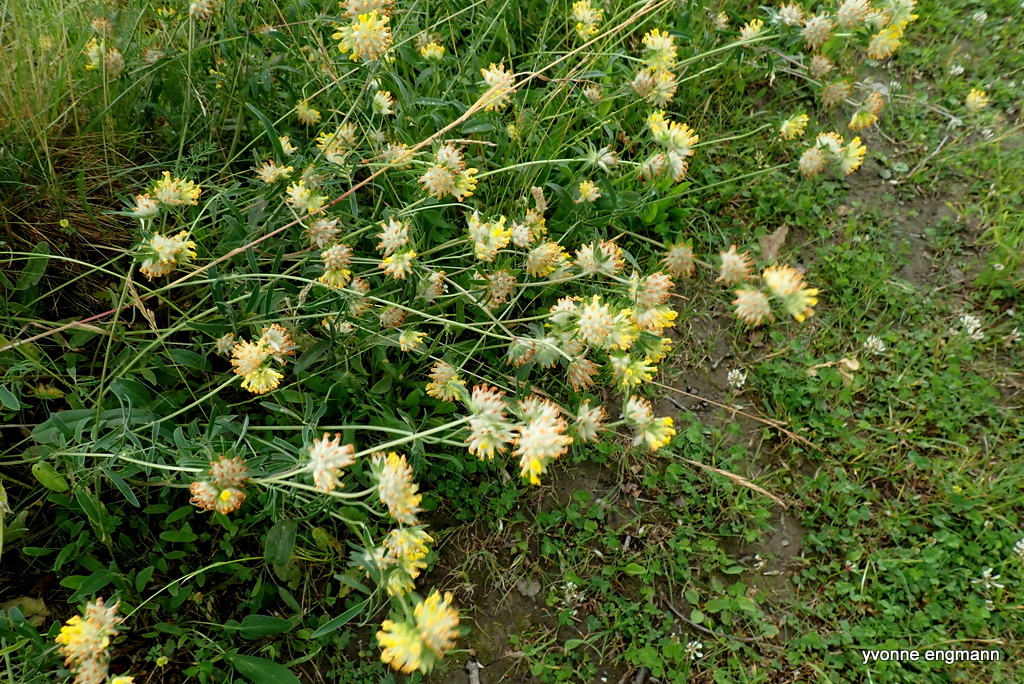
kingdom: Plantae
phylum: Tracheophyta
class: Magnoliopsida
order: Fabales
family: Fabaceae
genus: Anthyllis
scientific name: Anthyllis vulneraria
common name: Kidney vetch
